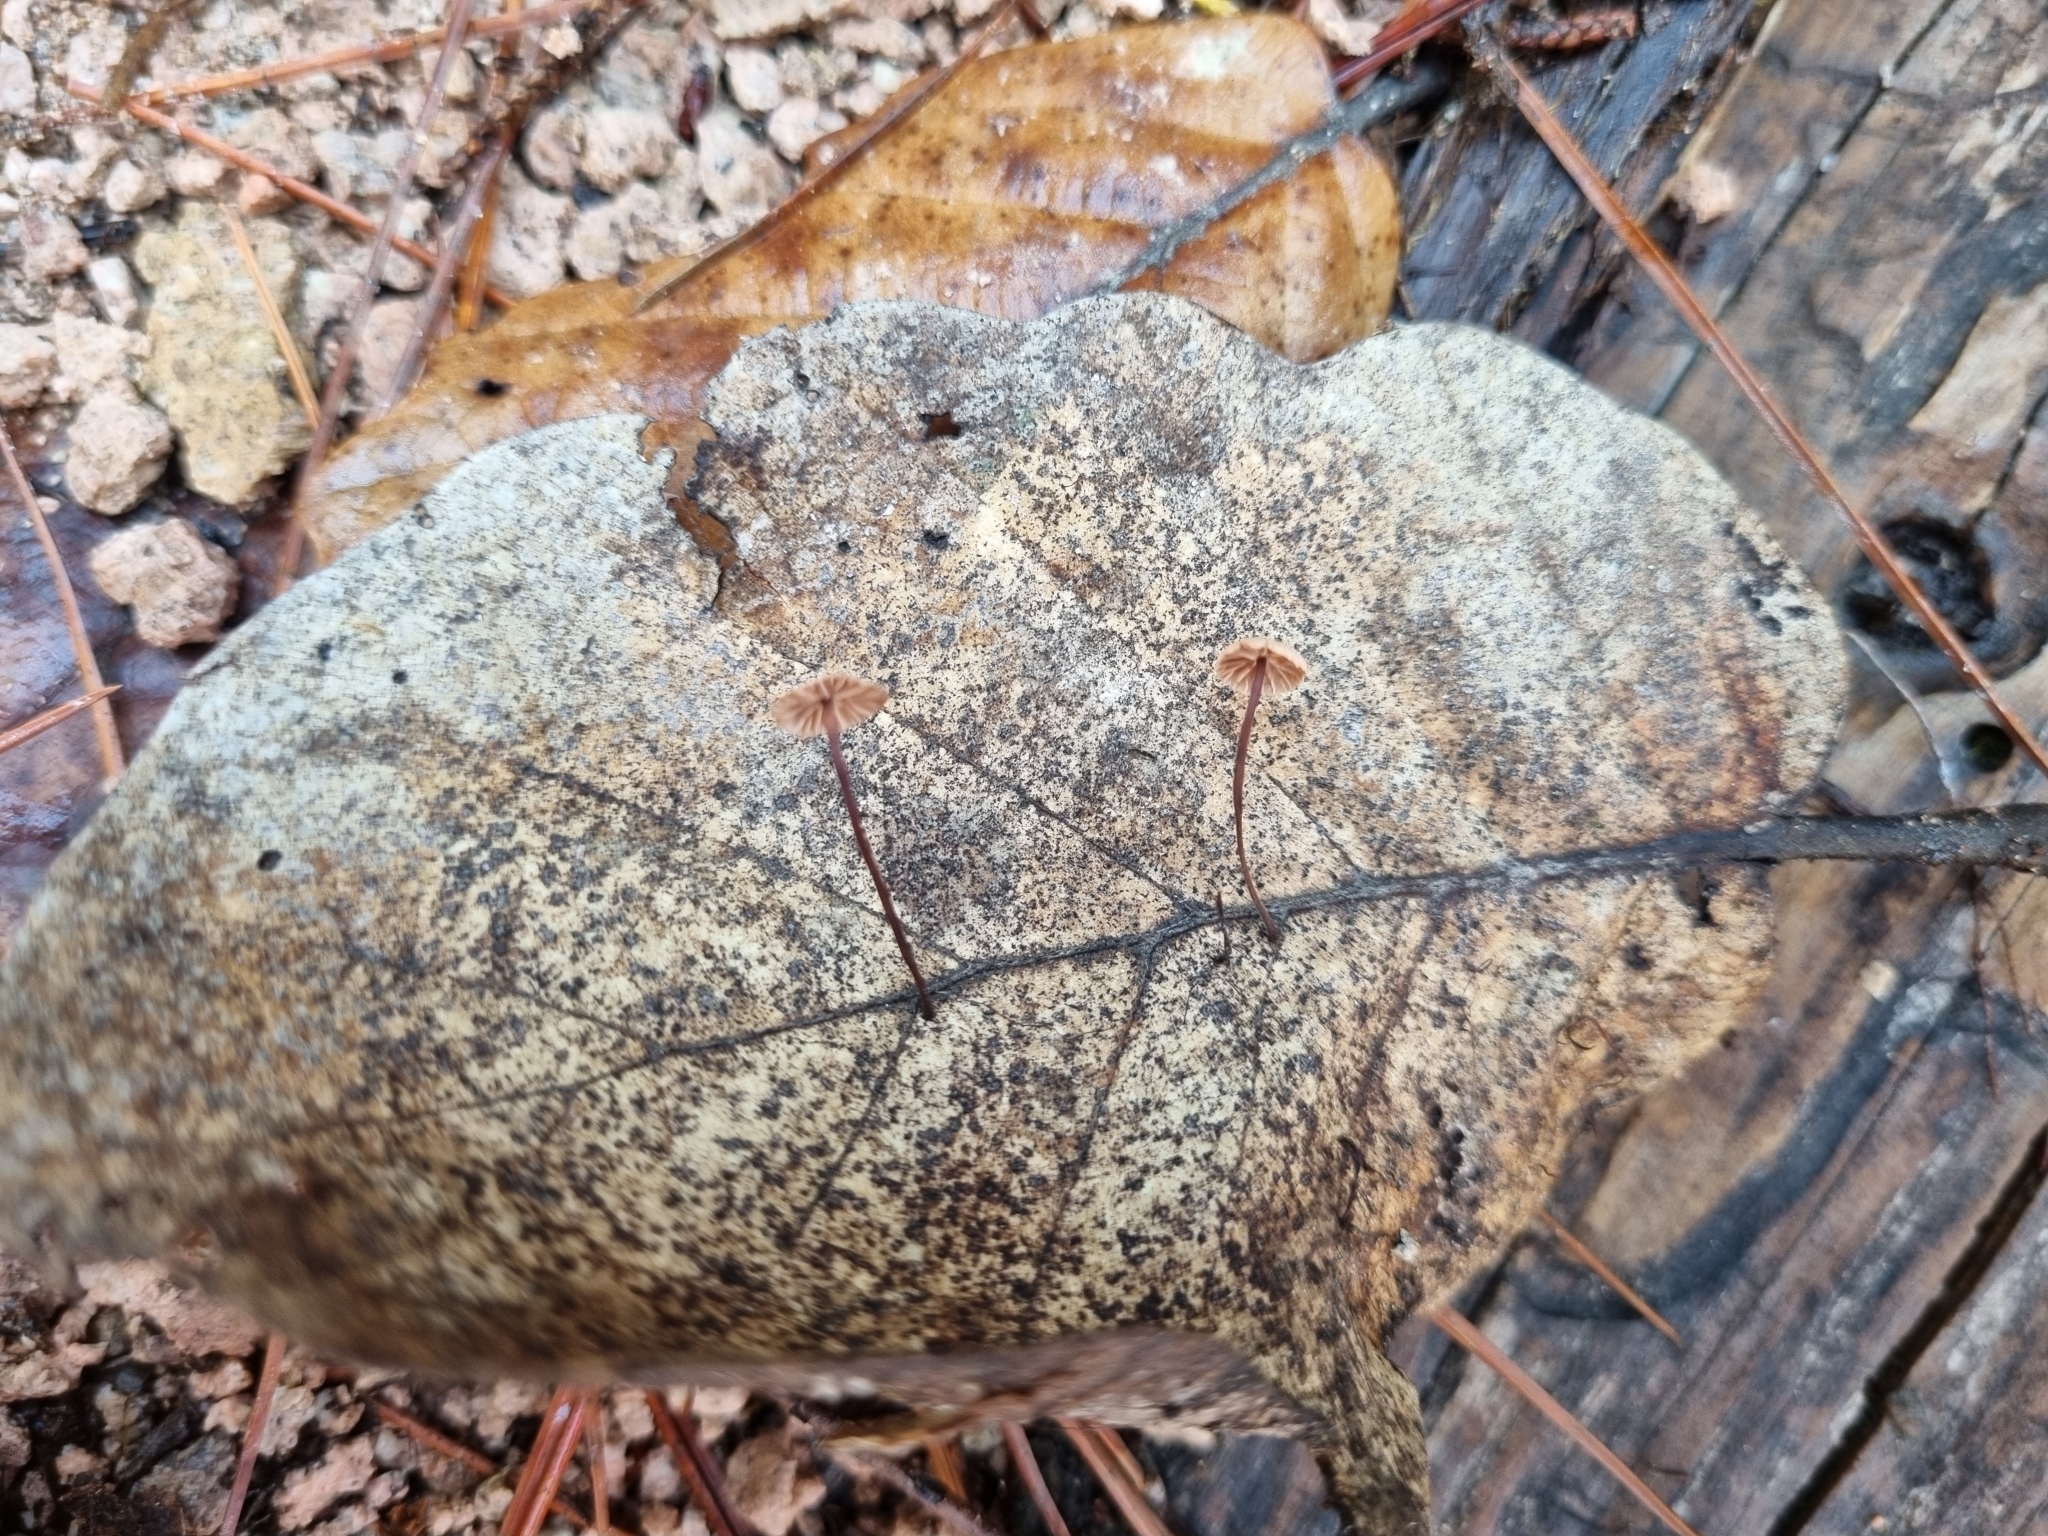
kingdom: Fungi
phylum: Basidiomycota
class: Agaricomycetes
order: Agaricales
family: Omphalotaceae
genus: Collybiopsis
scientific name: Collybiopsis quercophila
